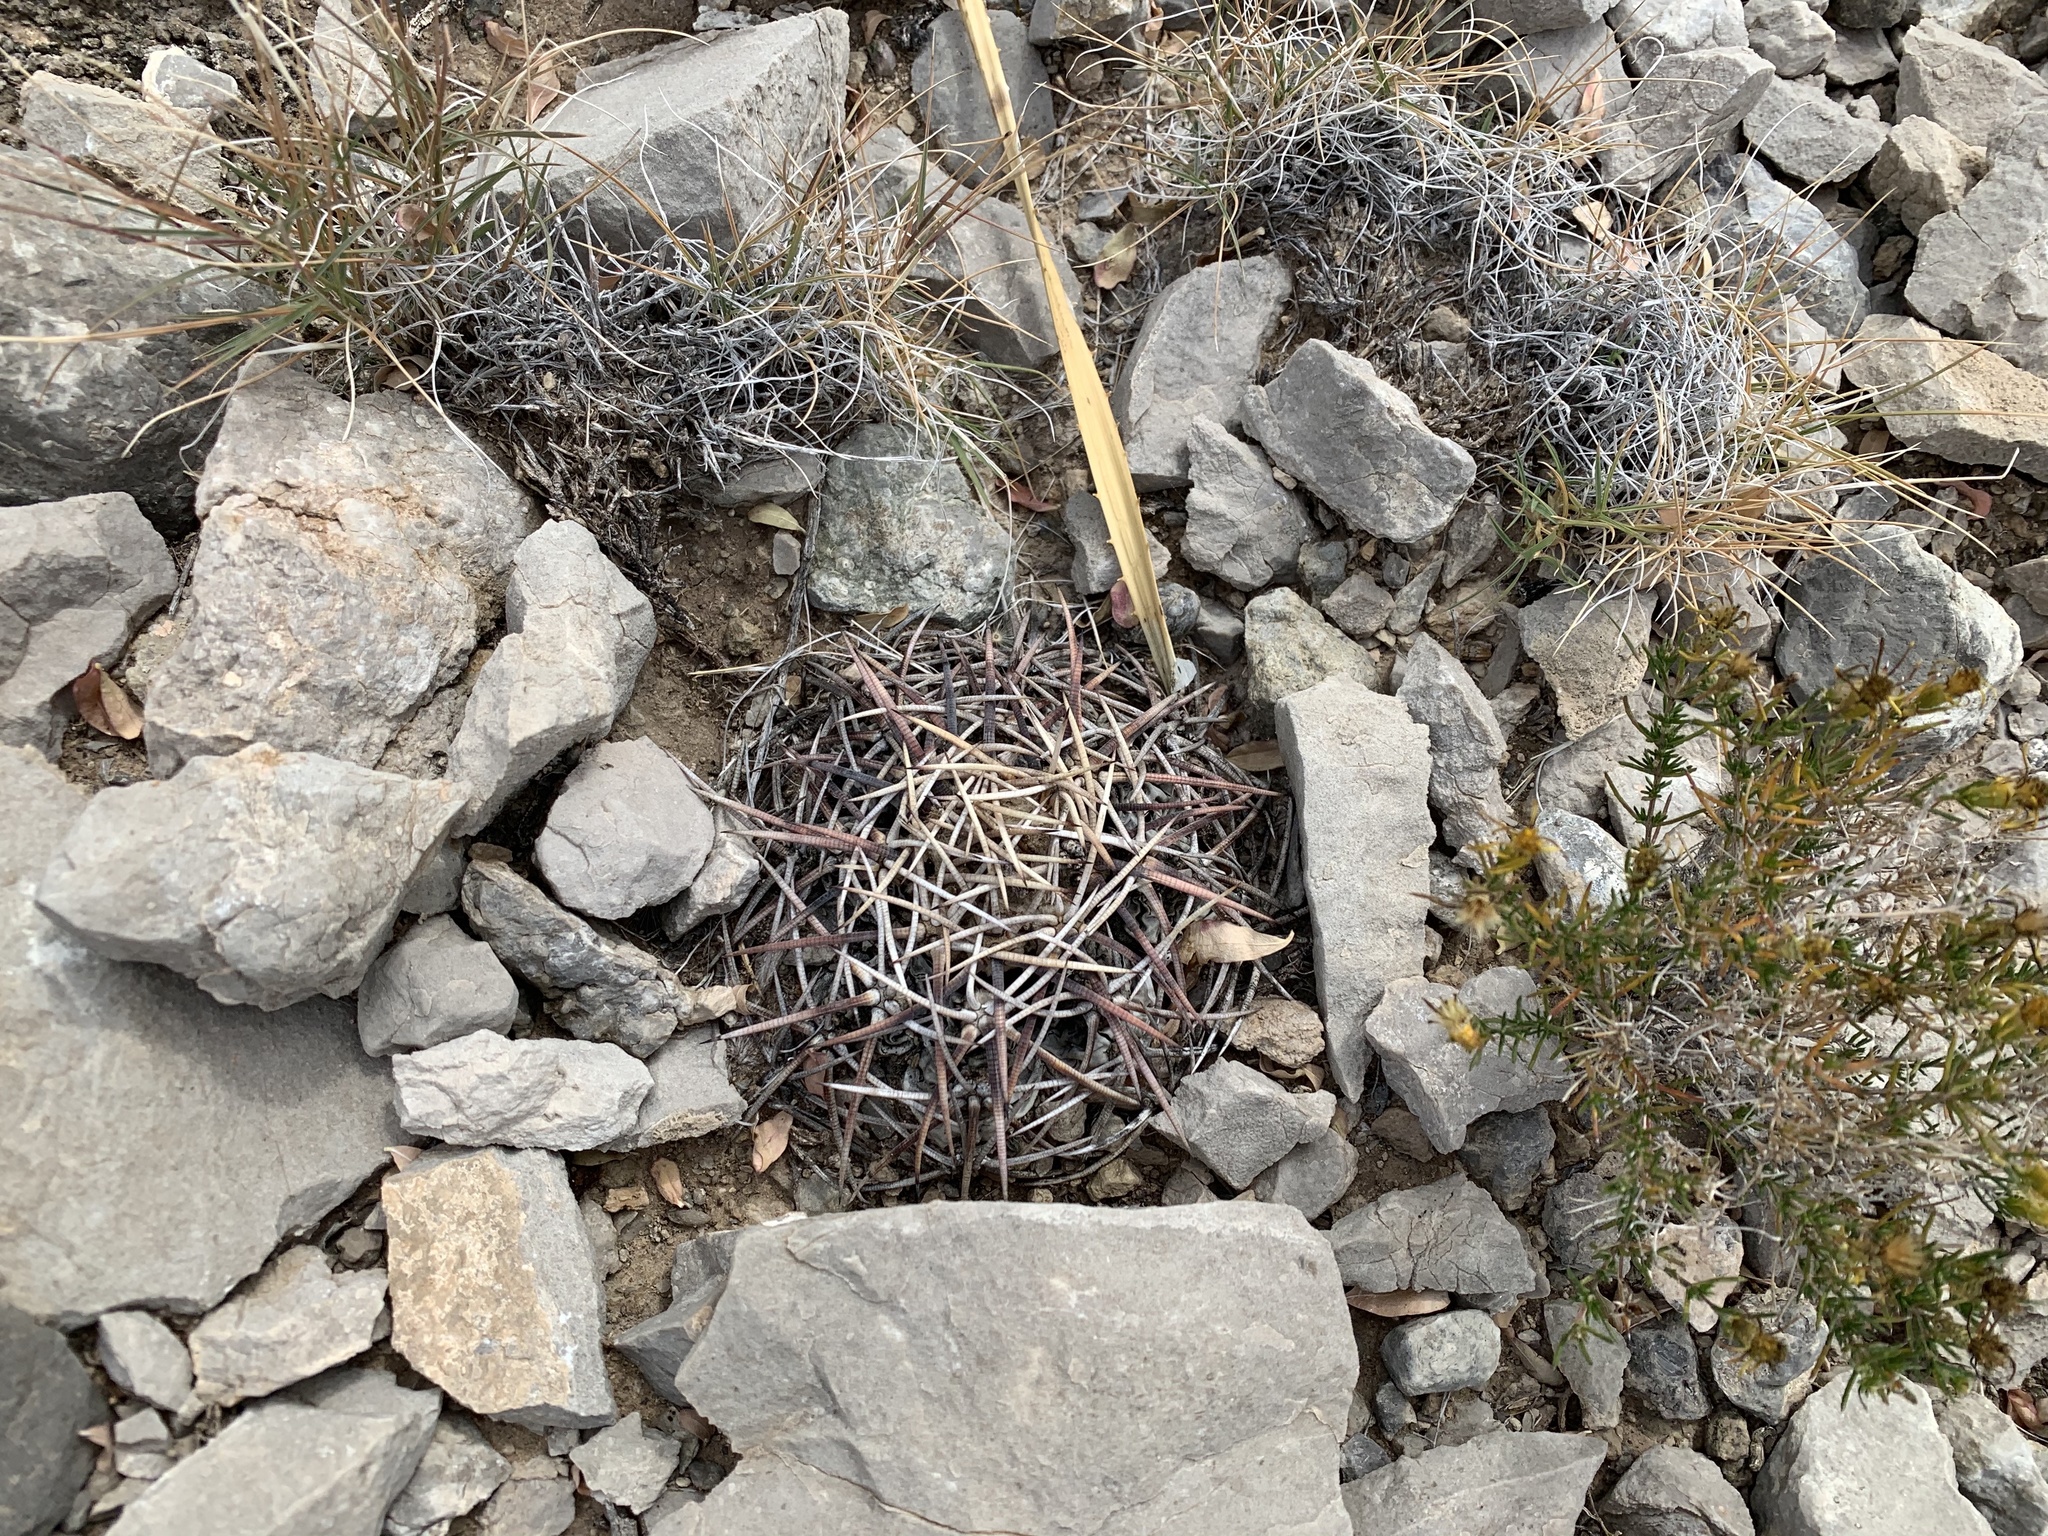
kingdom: Plantae
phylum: Tracheophyta
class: Magnoliopsida
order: Caryophyllales
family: Cactaceae
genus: Echinocactus
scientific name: Echinocactus horizonthalonius
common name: Devilshead
